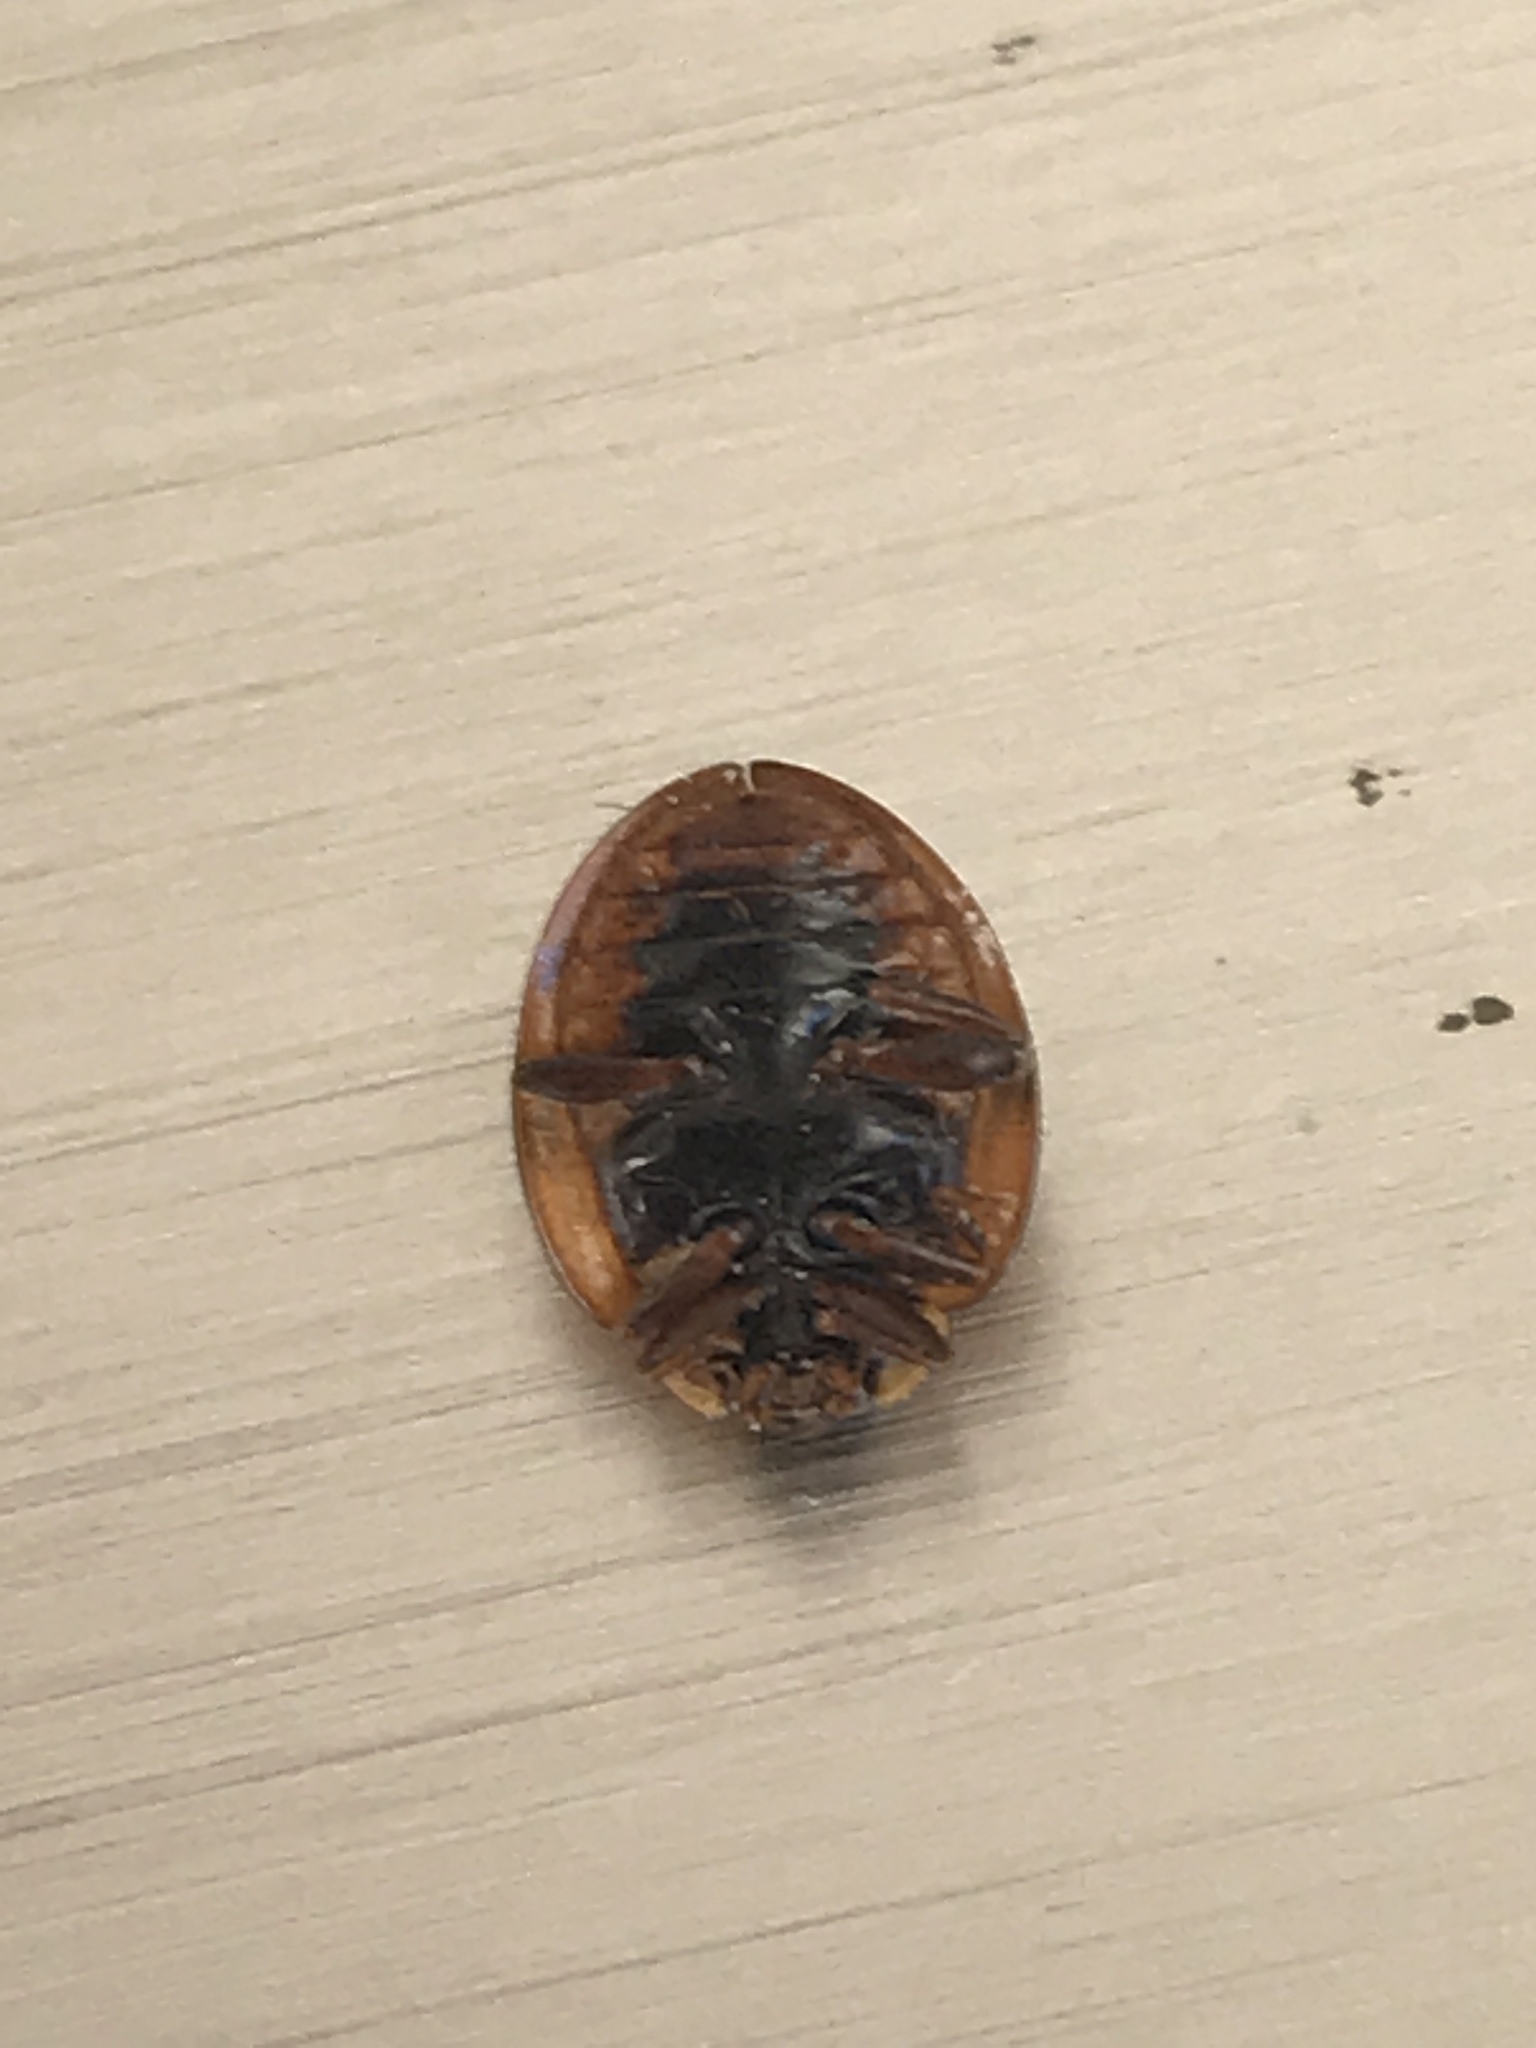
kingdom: Animalia
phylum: Arthropoda
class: Insecta
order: Coleoptera
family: Coccinellidae
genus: Harmonia
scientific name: Harmonia axyridis
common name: Harlequin ladybird
